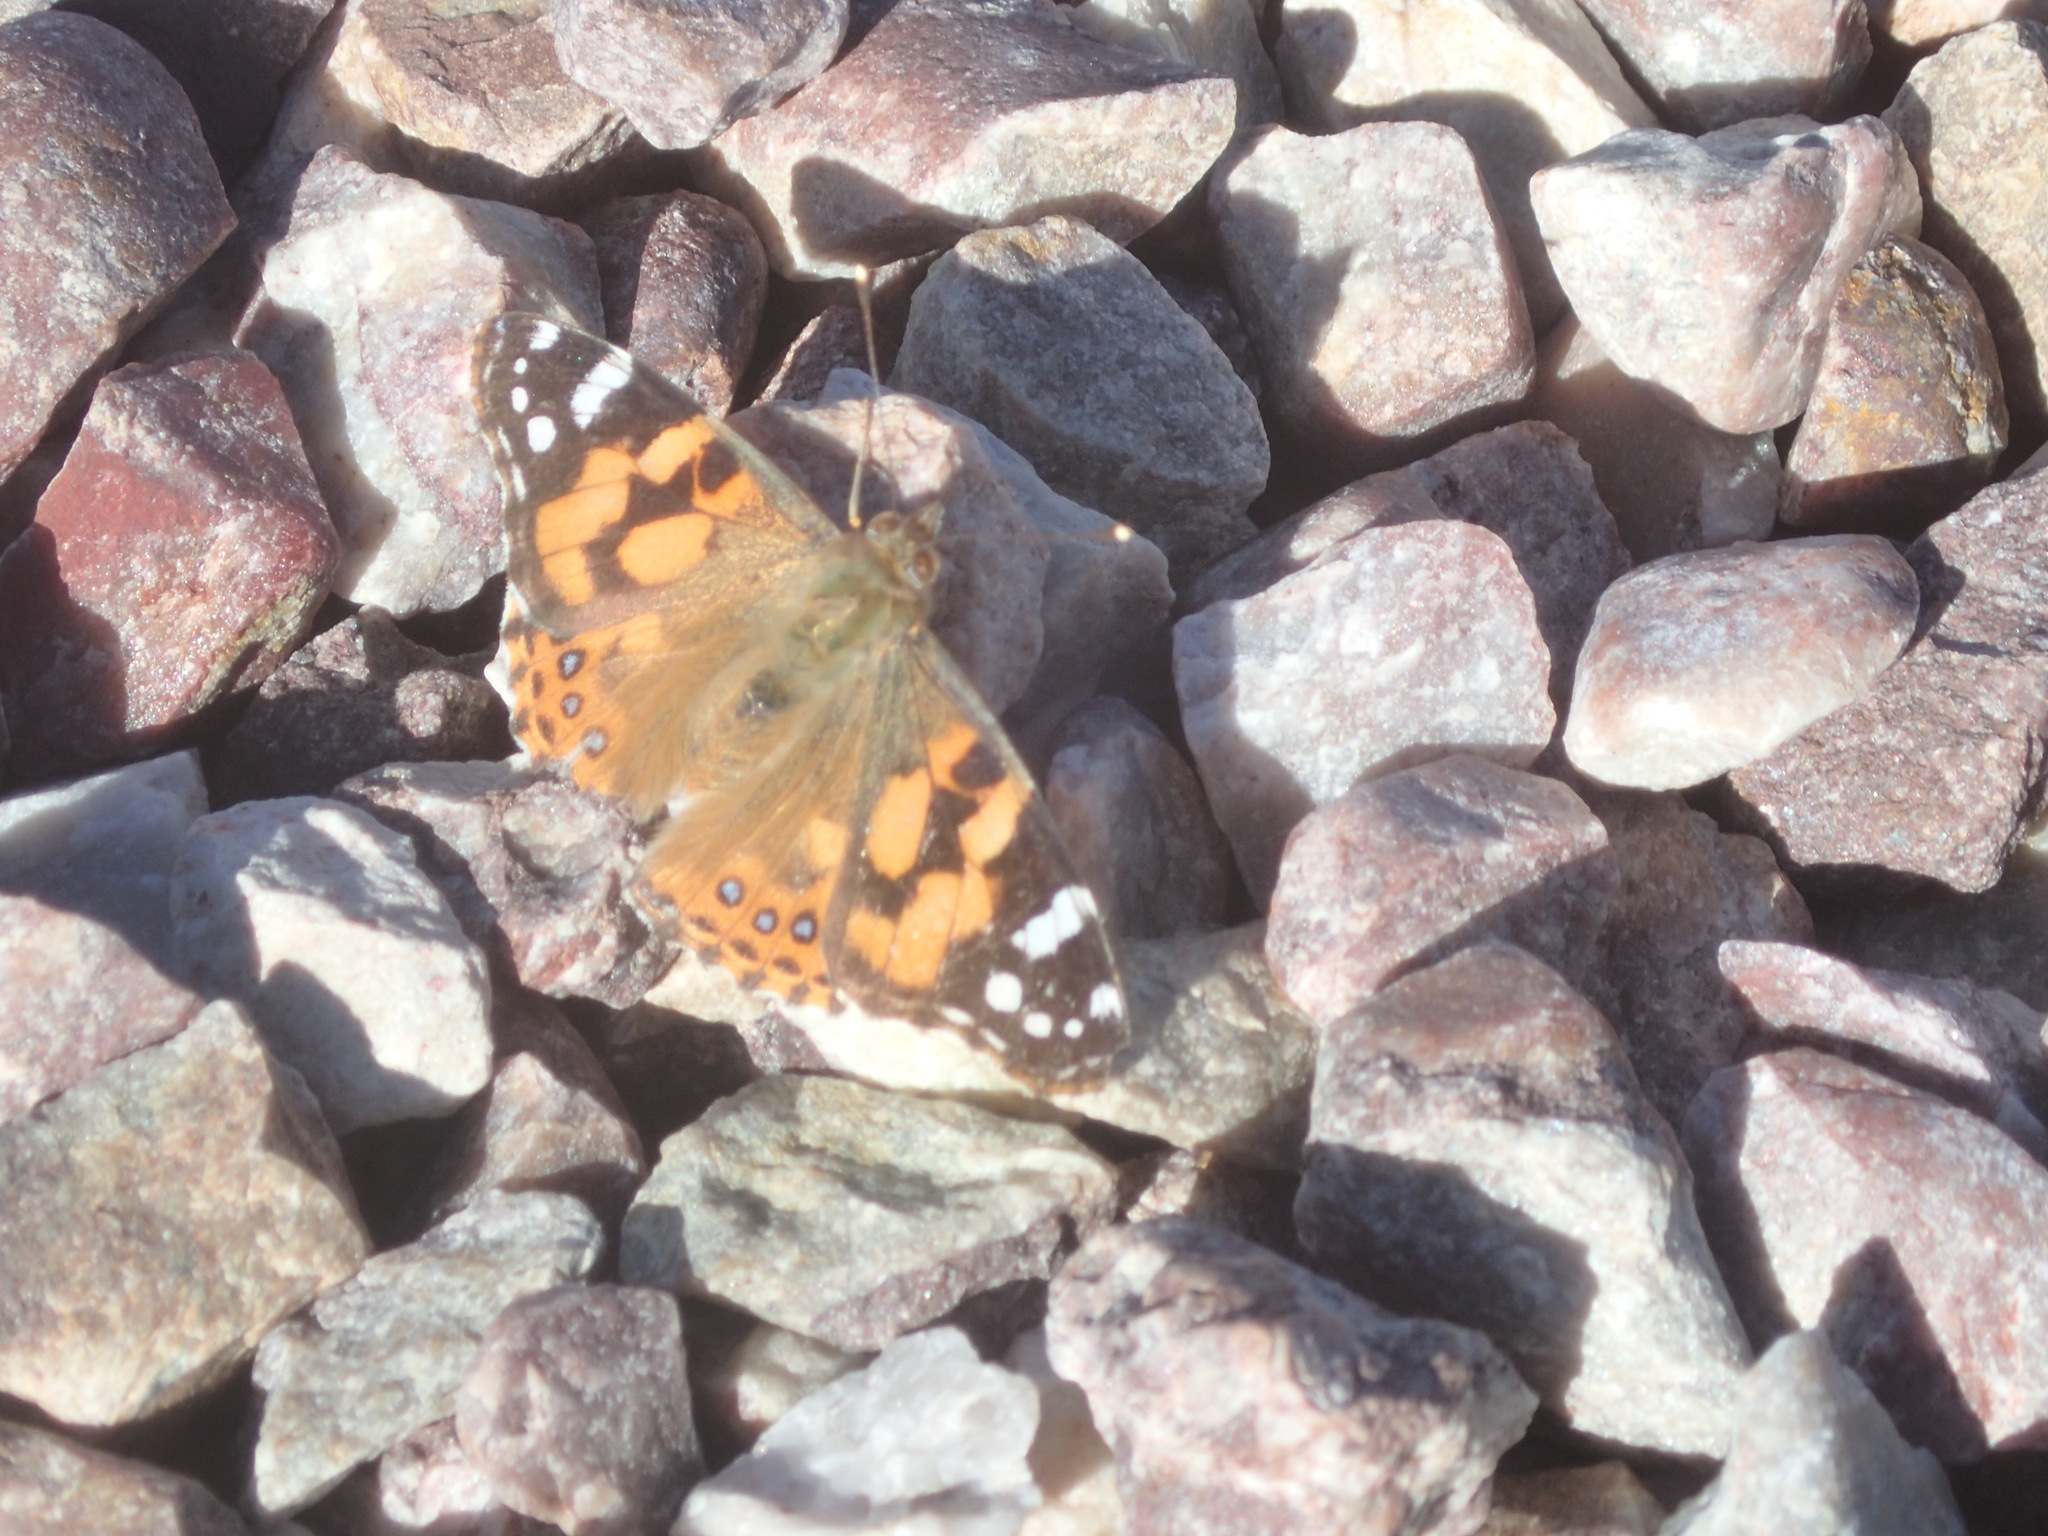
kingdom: Animalia
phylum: Arthropoda
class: Insecta
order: Lepidoptera
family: Nymphalidae
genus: Vanessa
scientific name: Vanessa kershawi
